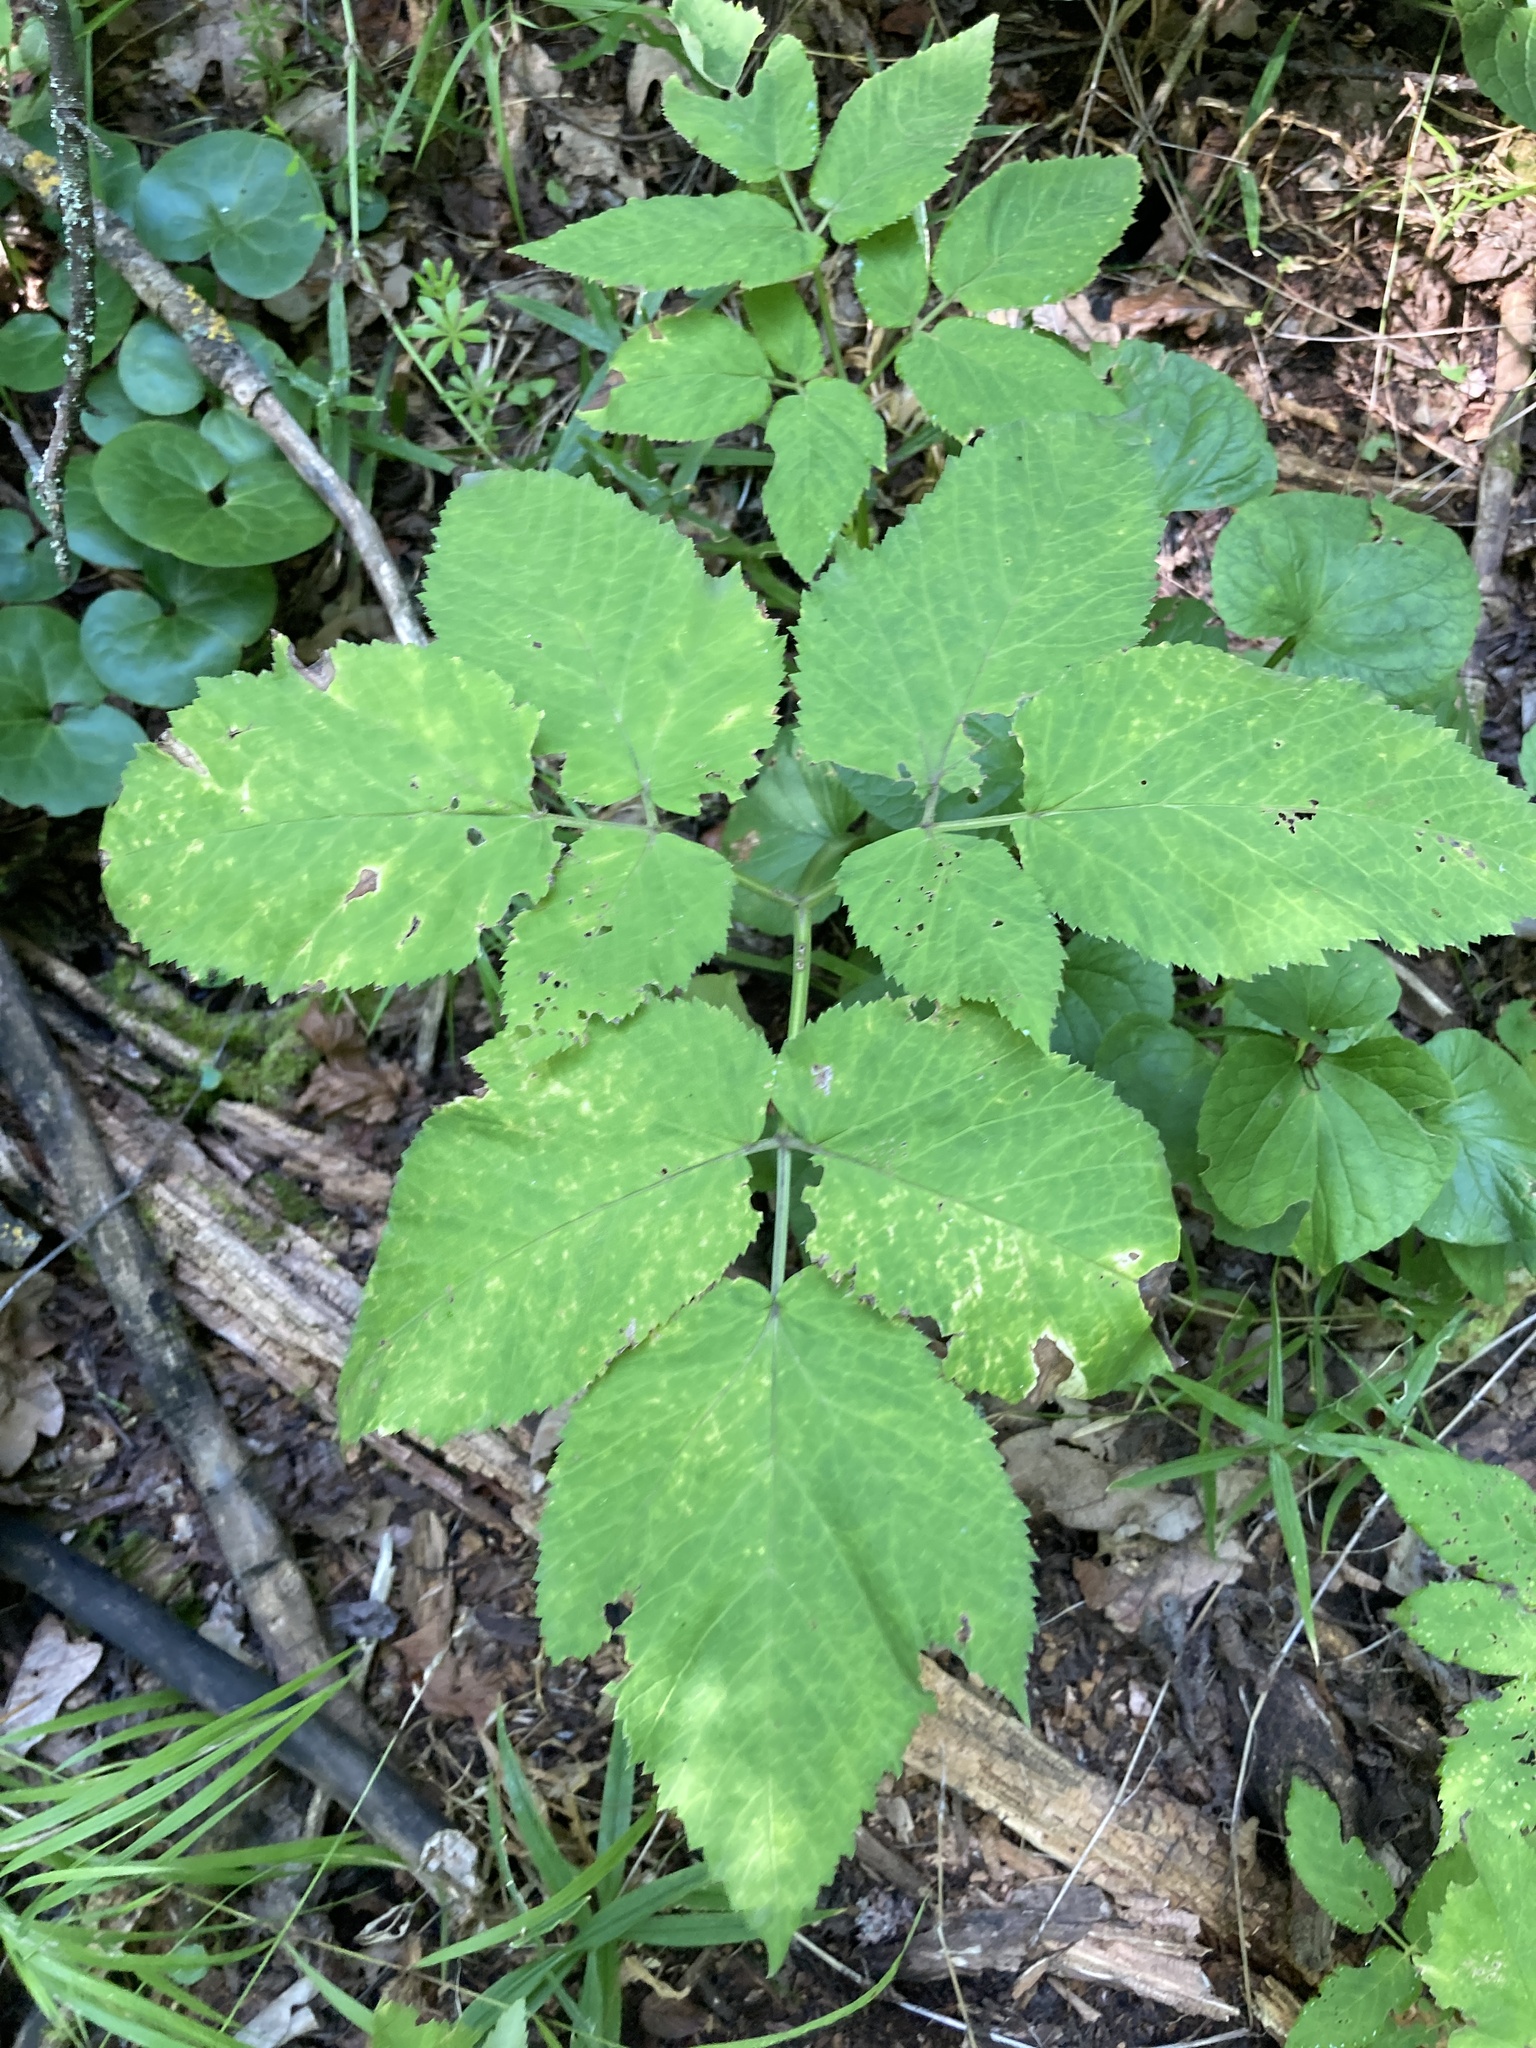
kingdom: Plantae
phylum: Tracheophyta
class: Magnoliopsida
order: Apiales
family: Apiaceae
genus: Aegopodium
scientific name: Aegopodium podagraria
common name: Ground-elder
